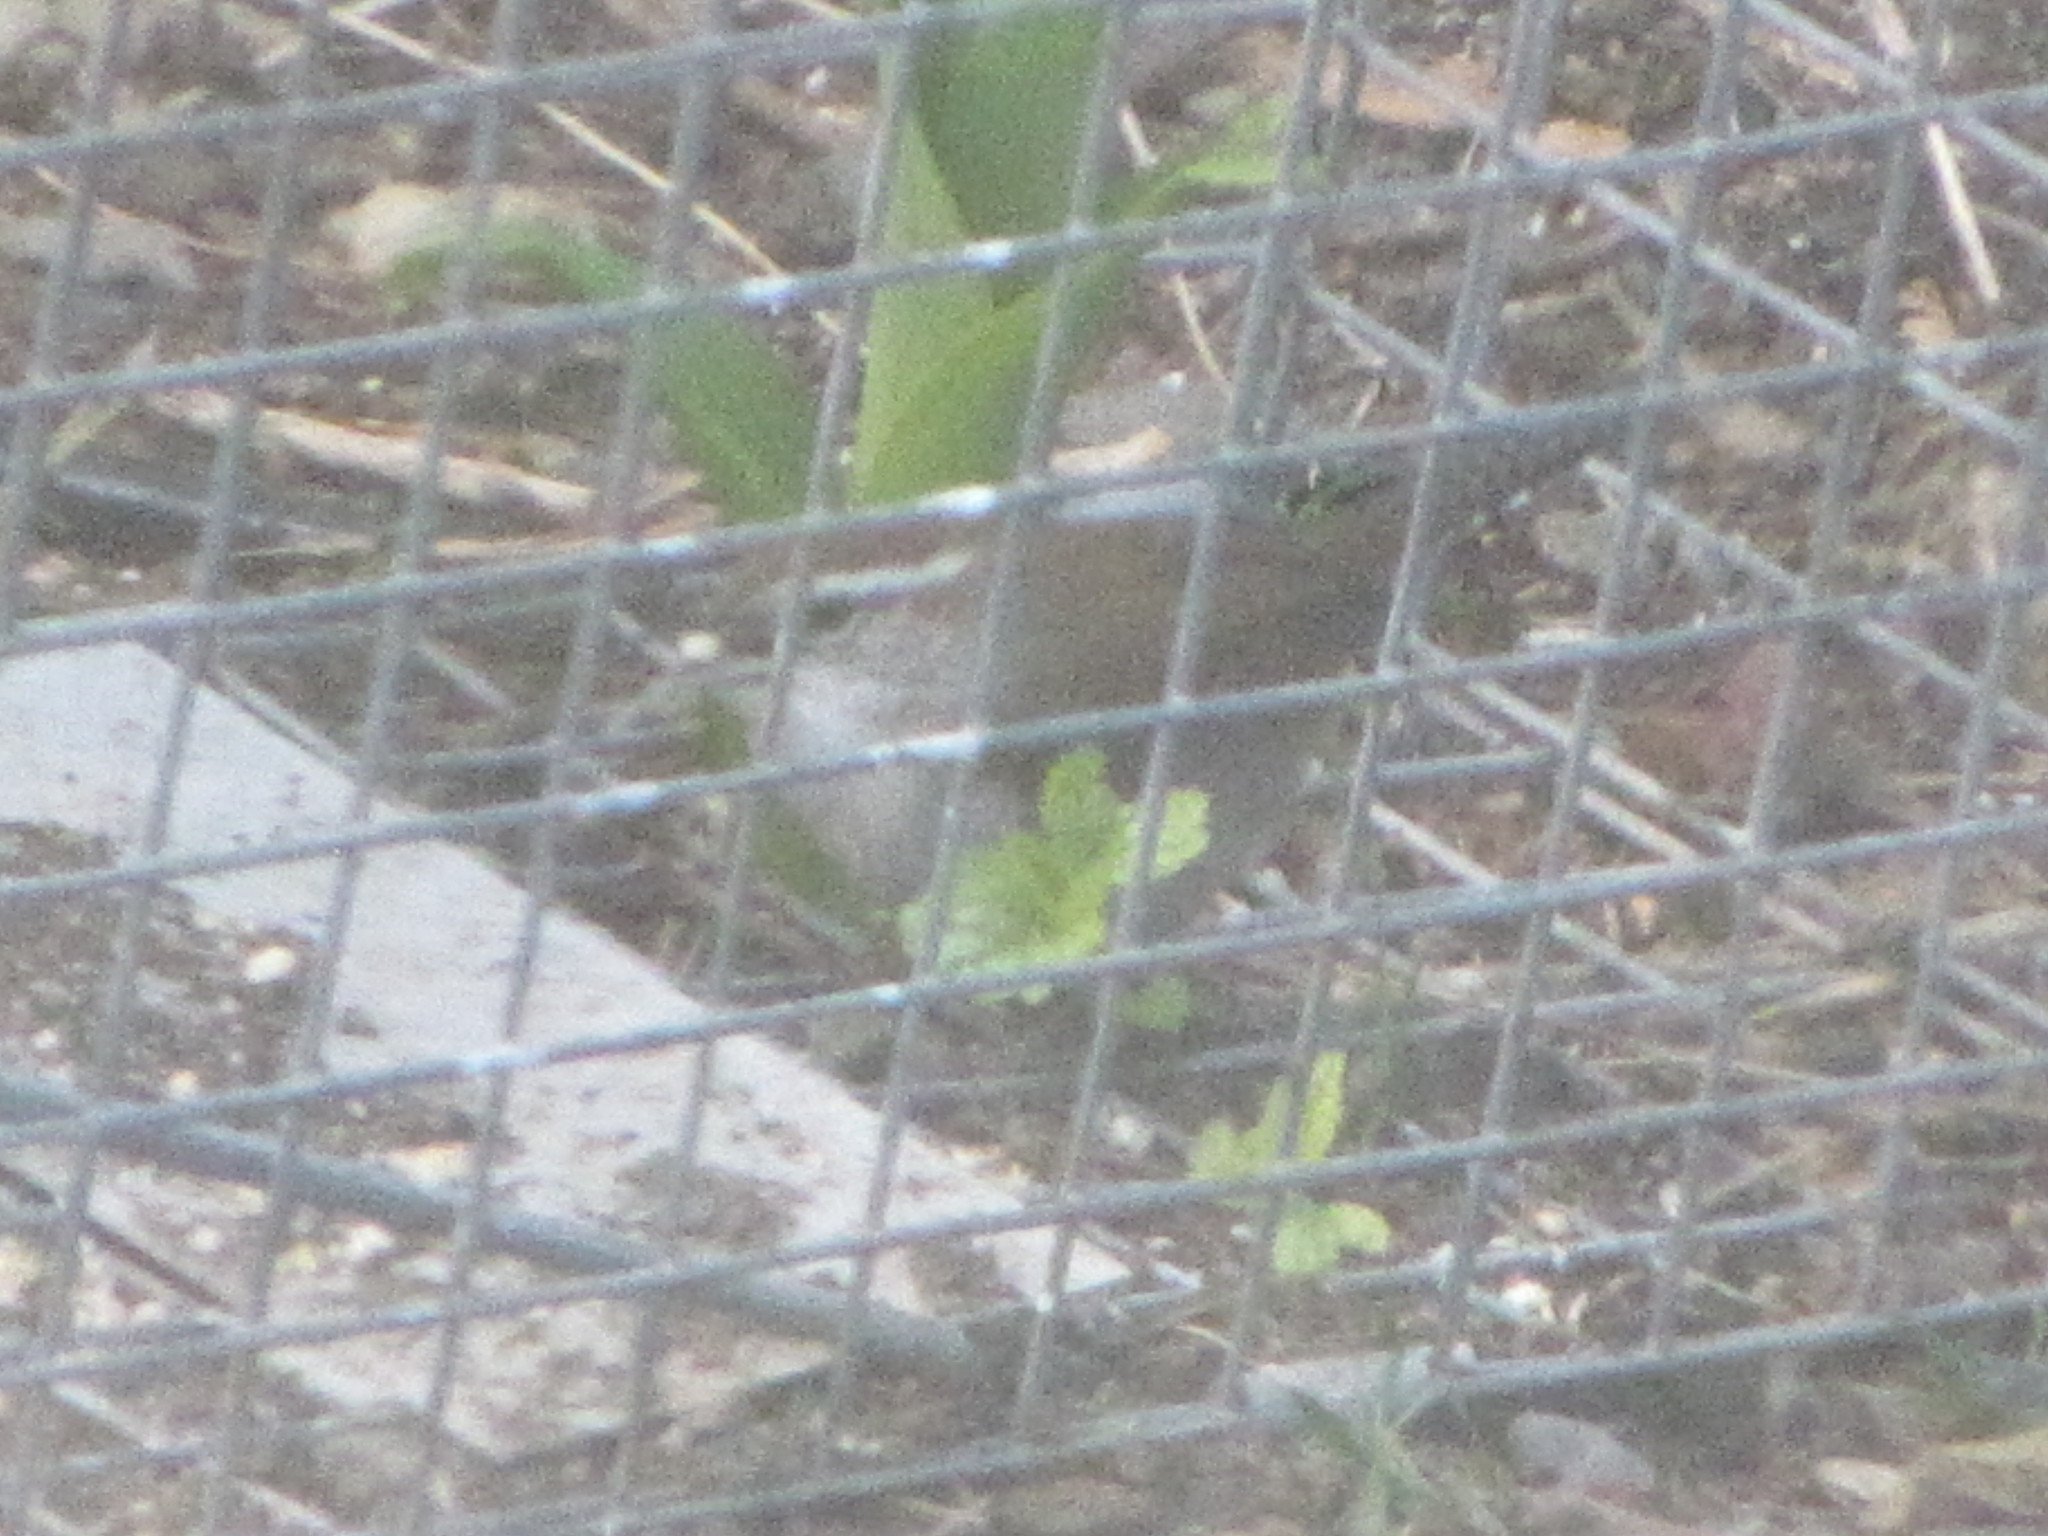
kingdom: Animalia
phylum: Chordata
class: Aves
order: Passeriformes
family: Troglodytidae
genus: Thryomanes
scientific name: Thryomanes bewickii
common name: Bewick's wren
